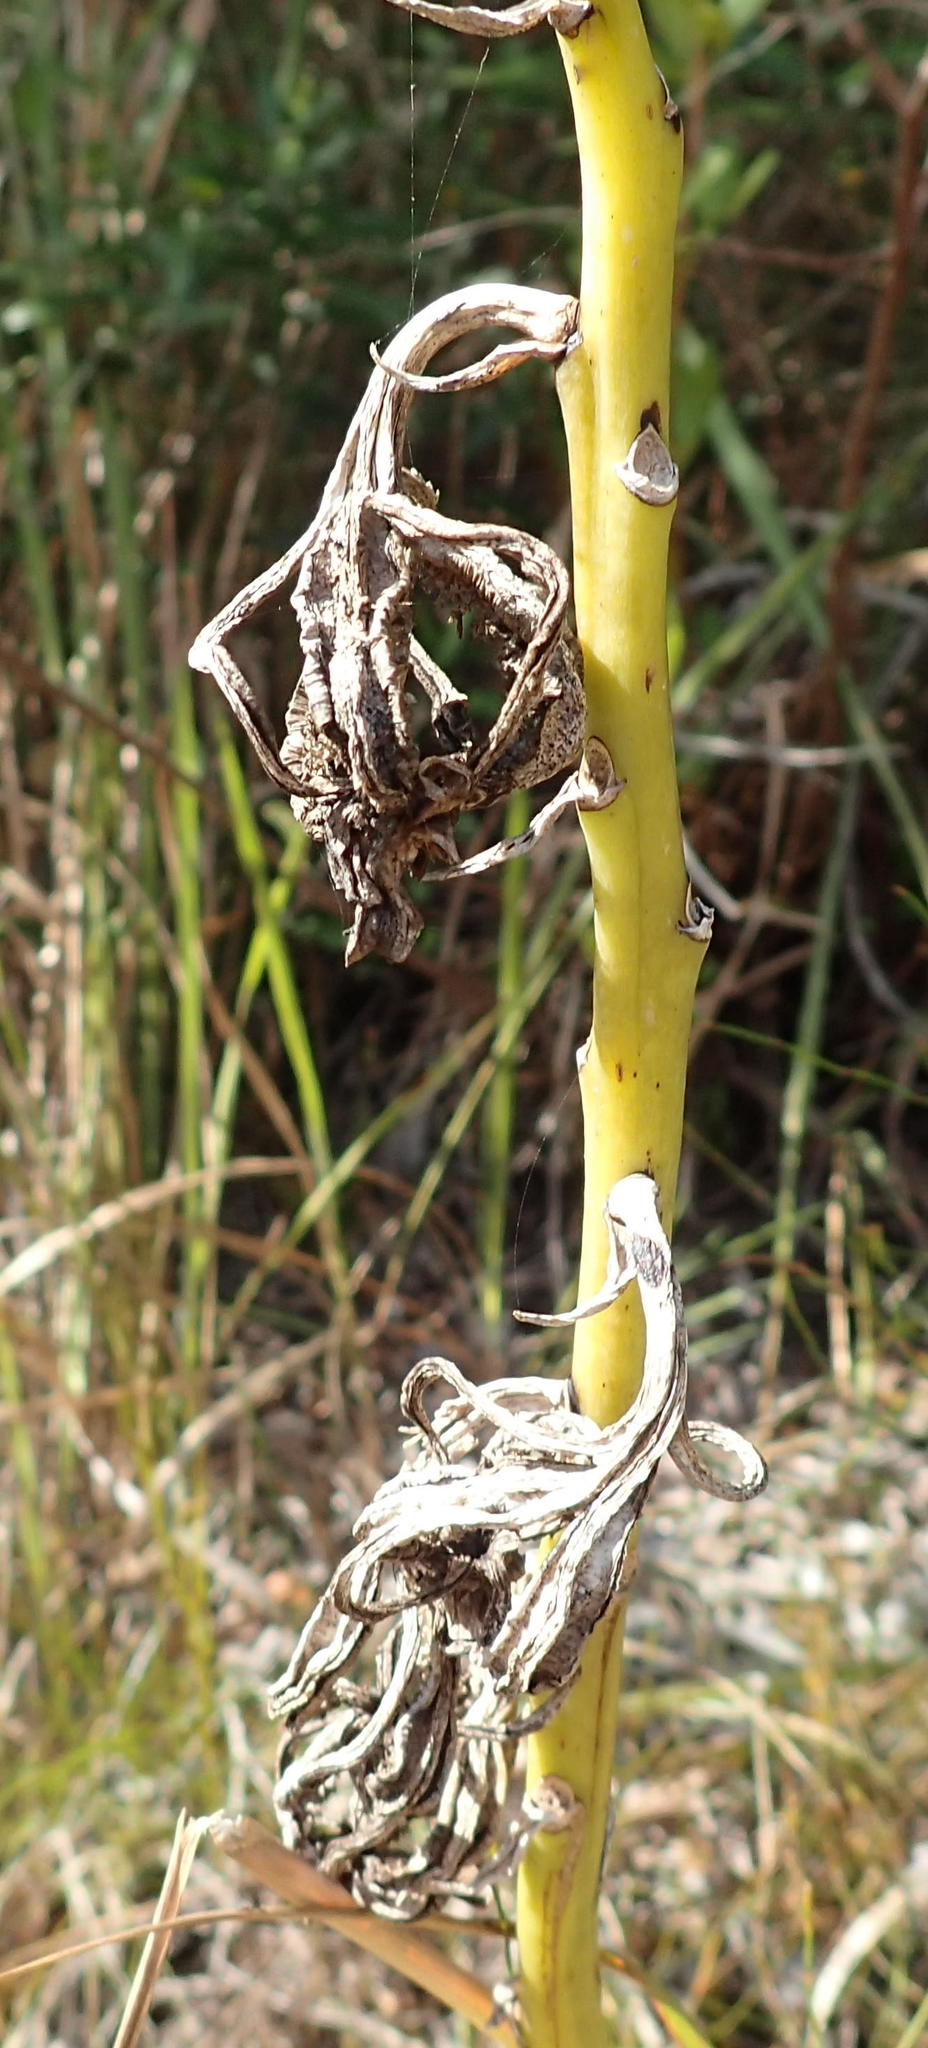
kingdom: Plantae
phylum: Tracheophyta
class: Liliopsida
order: Asparagales
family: Orchidaceae
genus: Eulophia
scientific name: Eulophia speciosa
